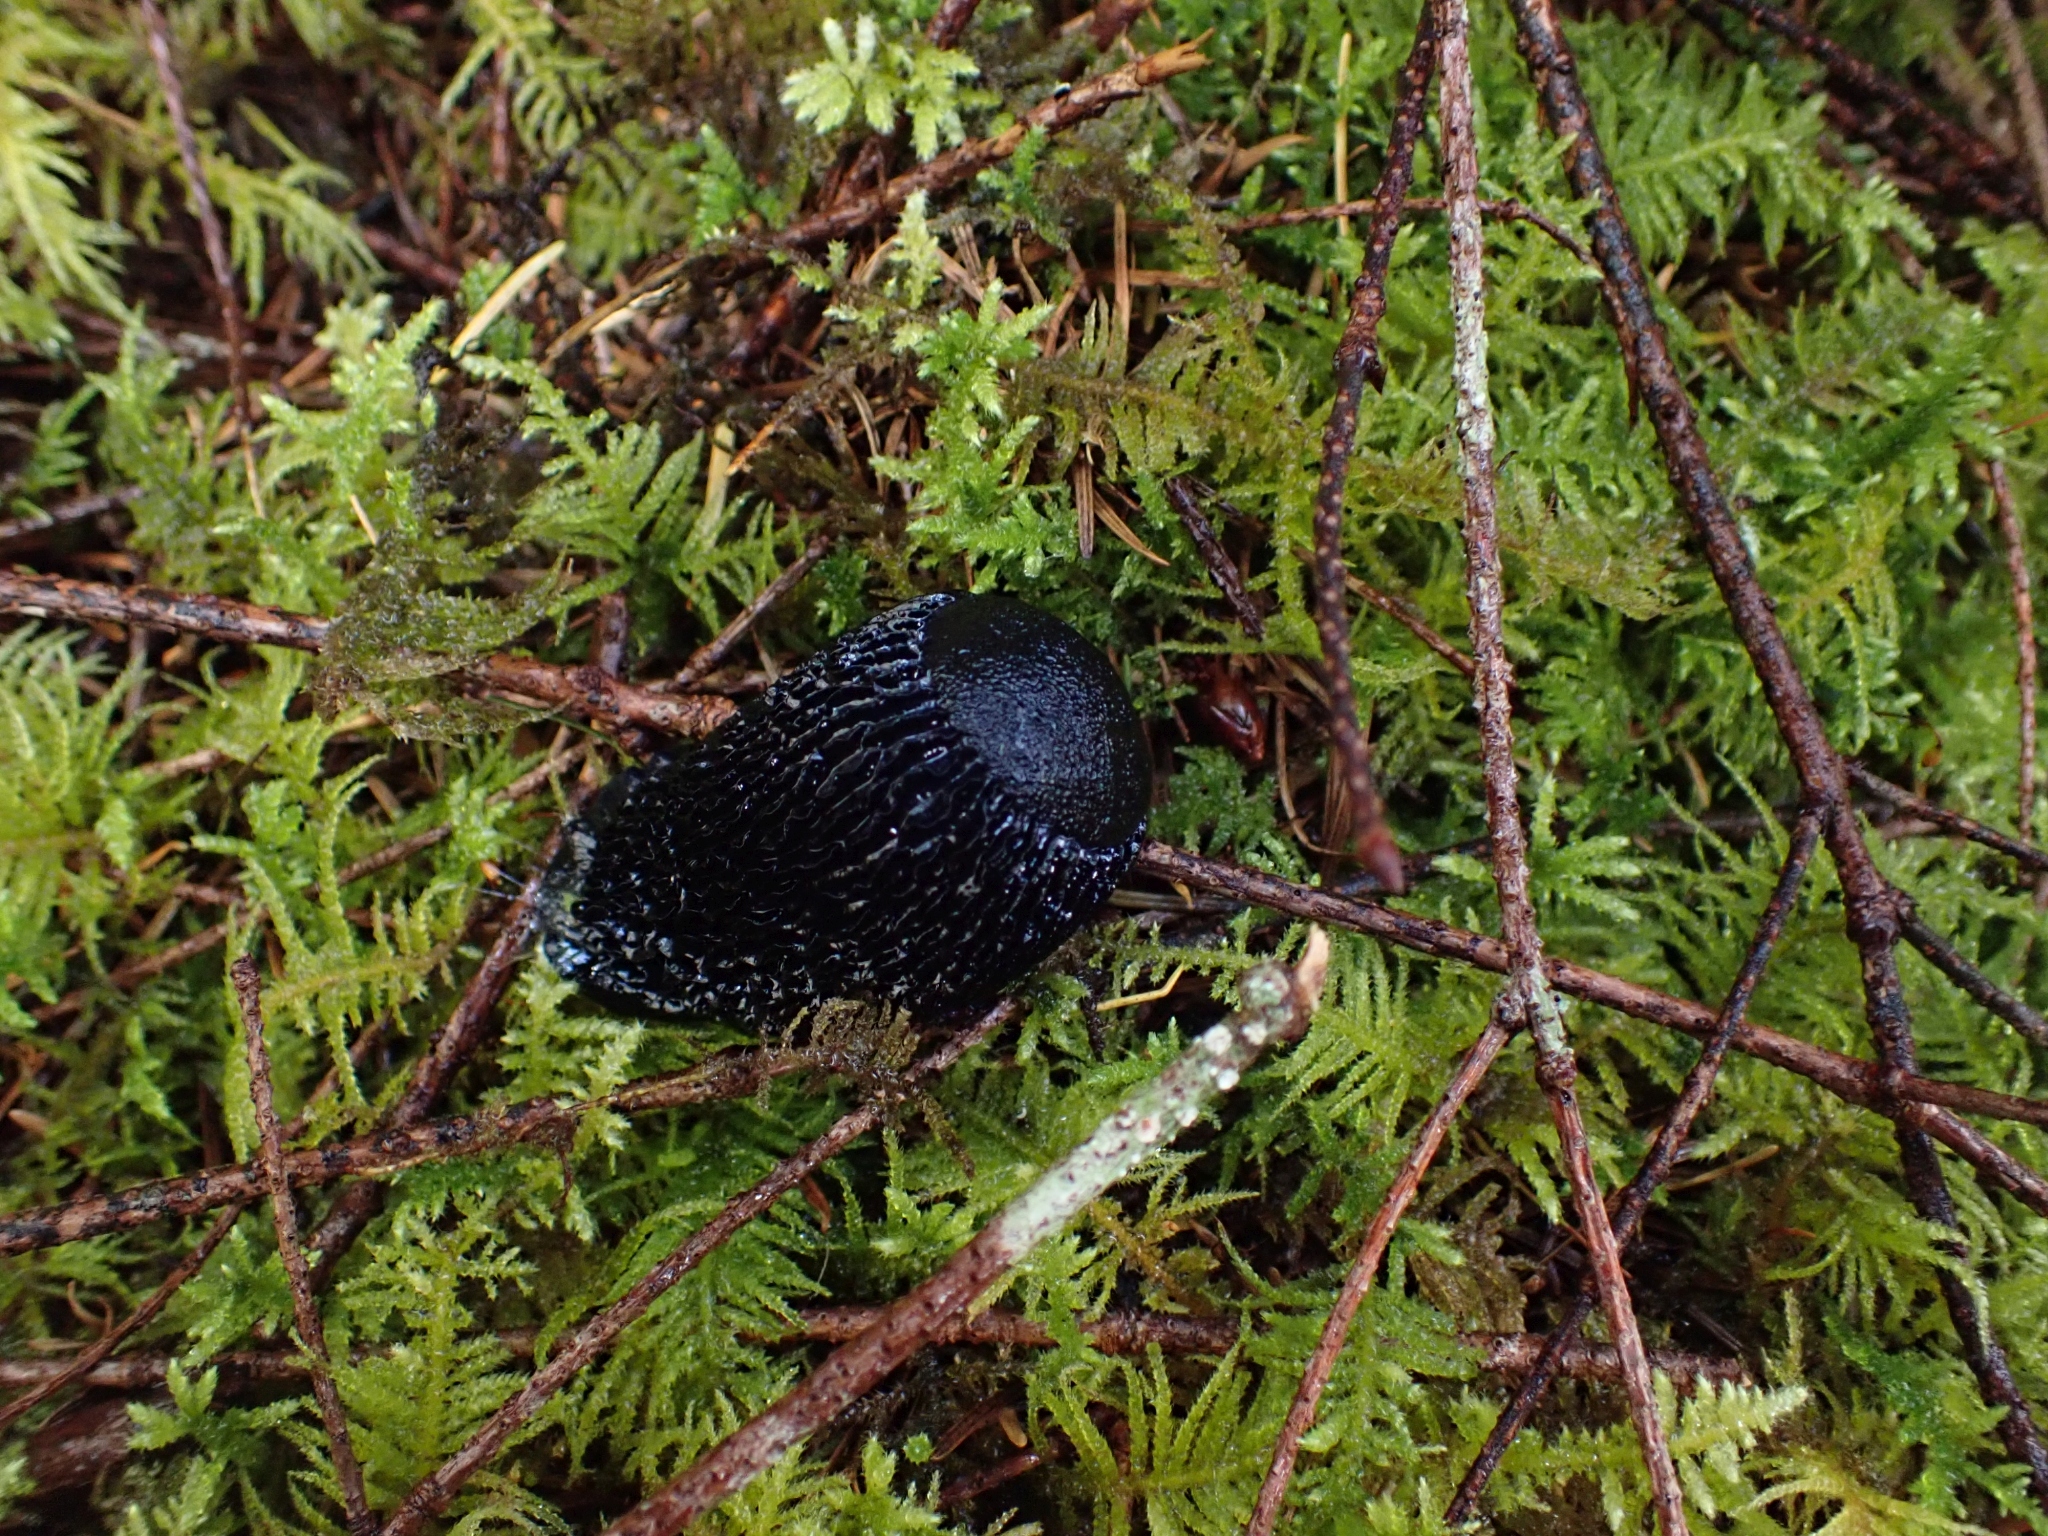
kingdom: Animalia
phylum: Mollusca
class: Gastropoda
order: Stylommatophora
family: Arionidae
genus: Arion
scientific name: Arion
